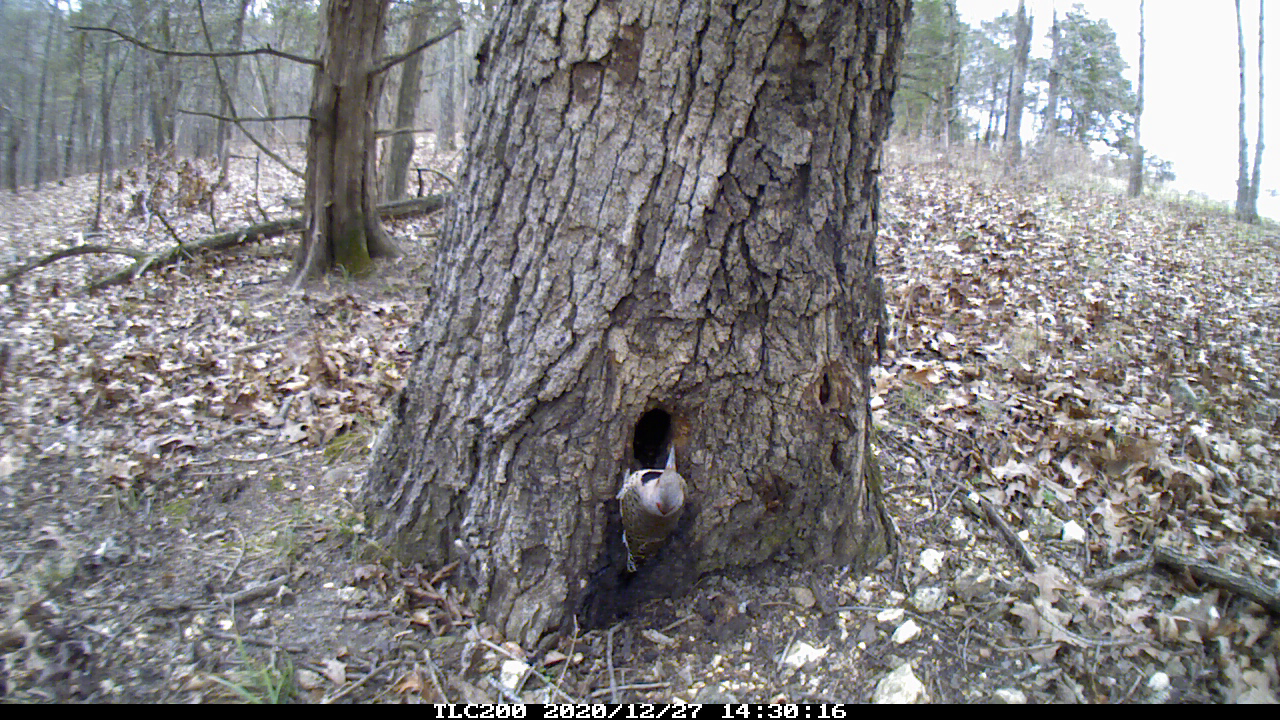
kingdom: Animalia
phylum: Chordata
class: Aves
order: Piciformes
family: Picidae
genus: Colaptes
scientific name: Colaptes auratus
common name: Northern flicker
